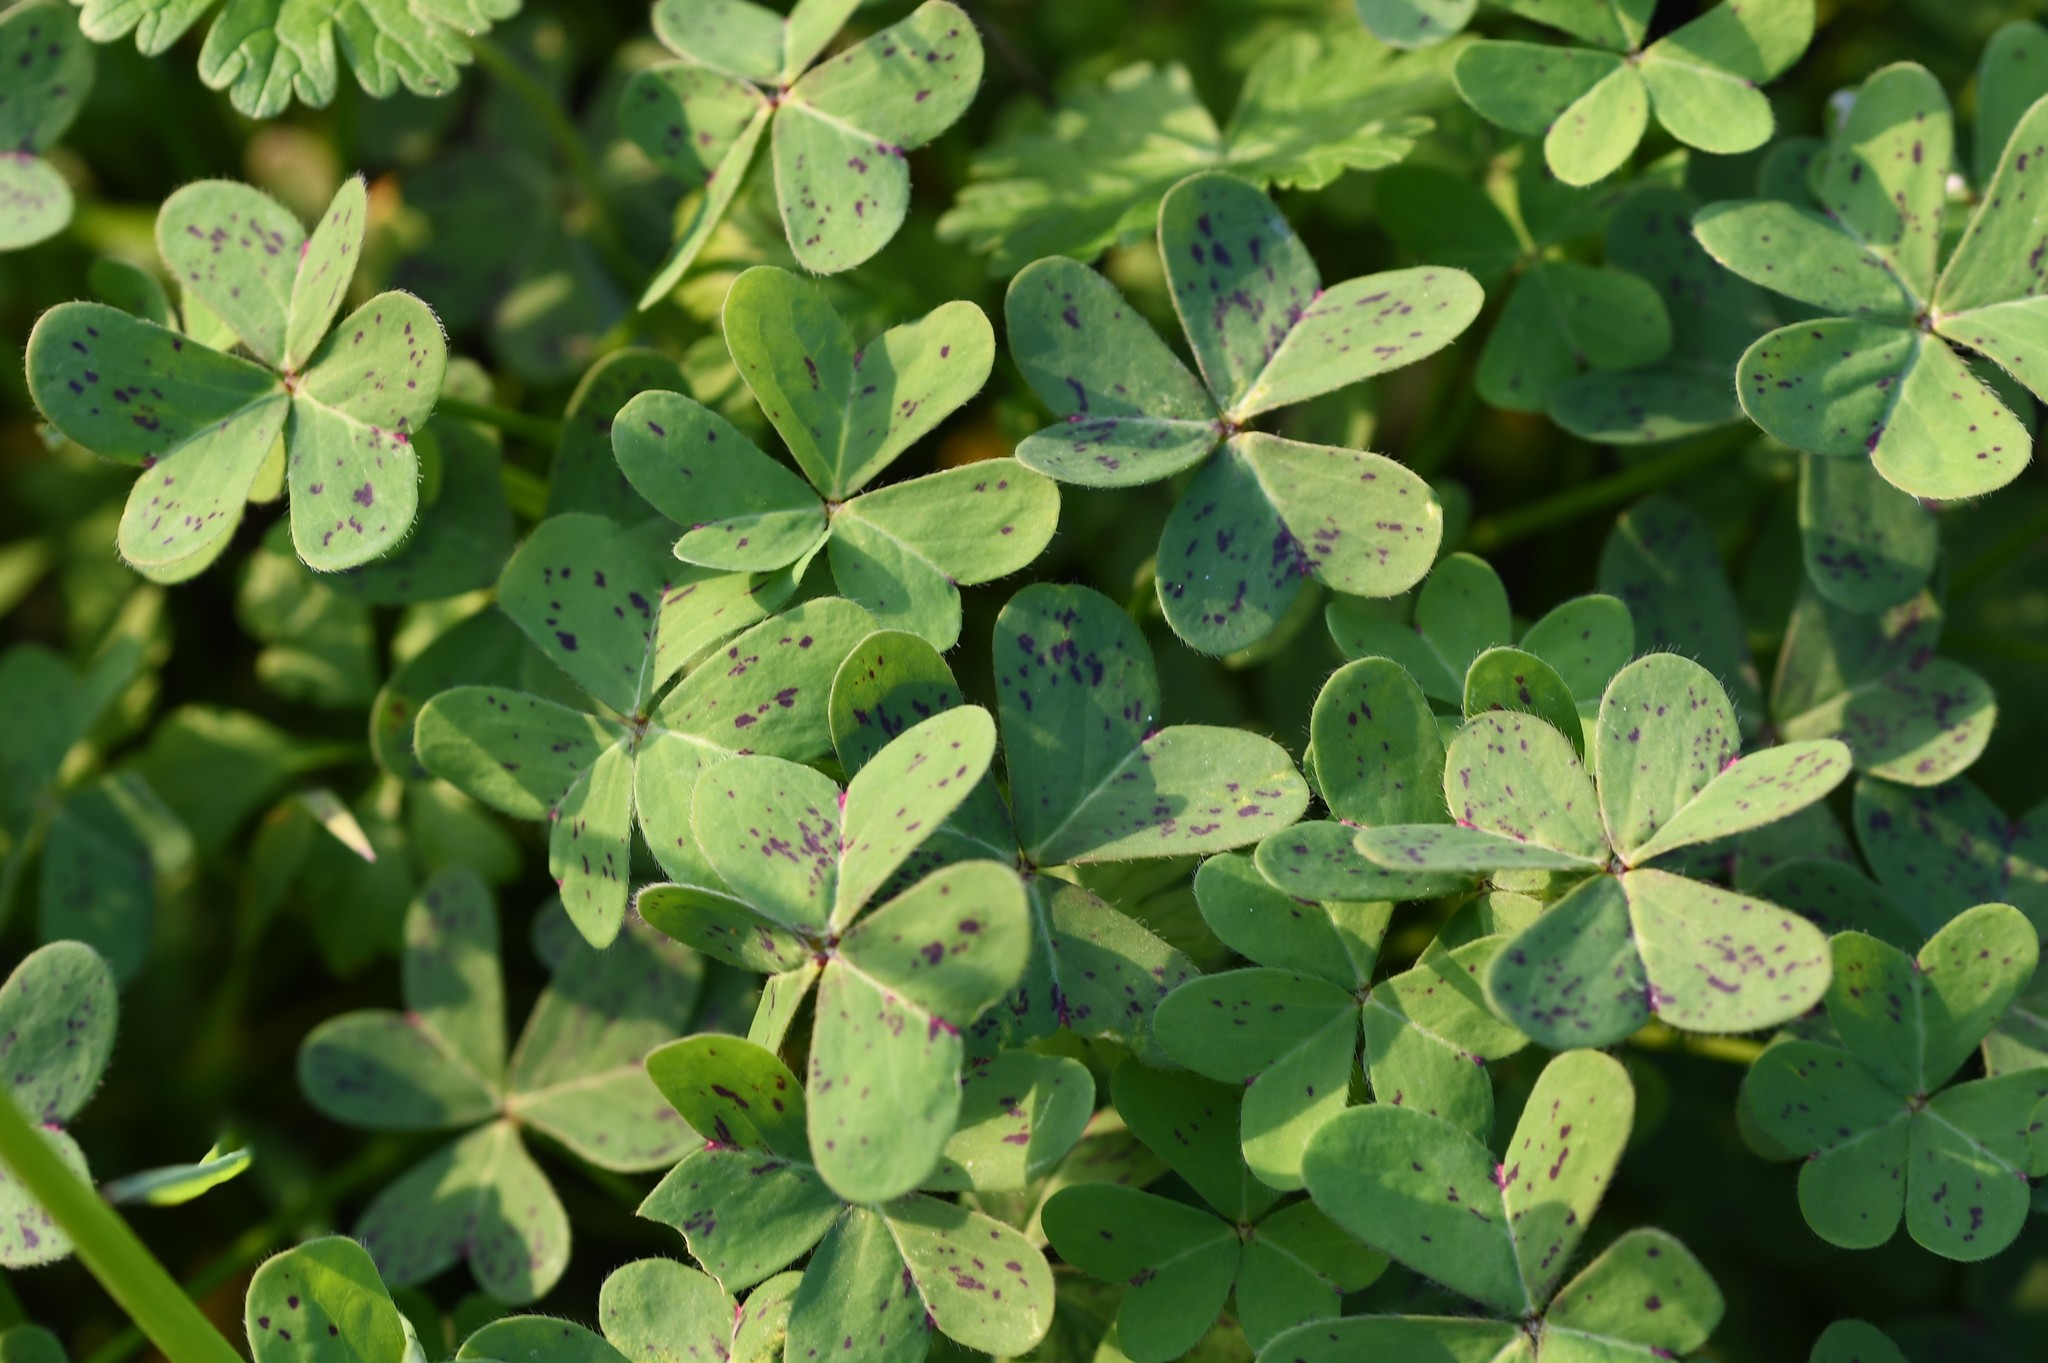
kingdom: Plantae
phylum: Tracheophyta
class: Magnoliopsida
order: Oxalidales
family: Oxalidaceae
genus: Oxalis
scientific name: Oxalis pes-caprae
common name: Bermuda-buttercup
